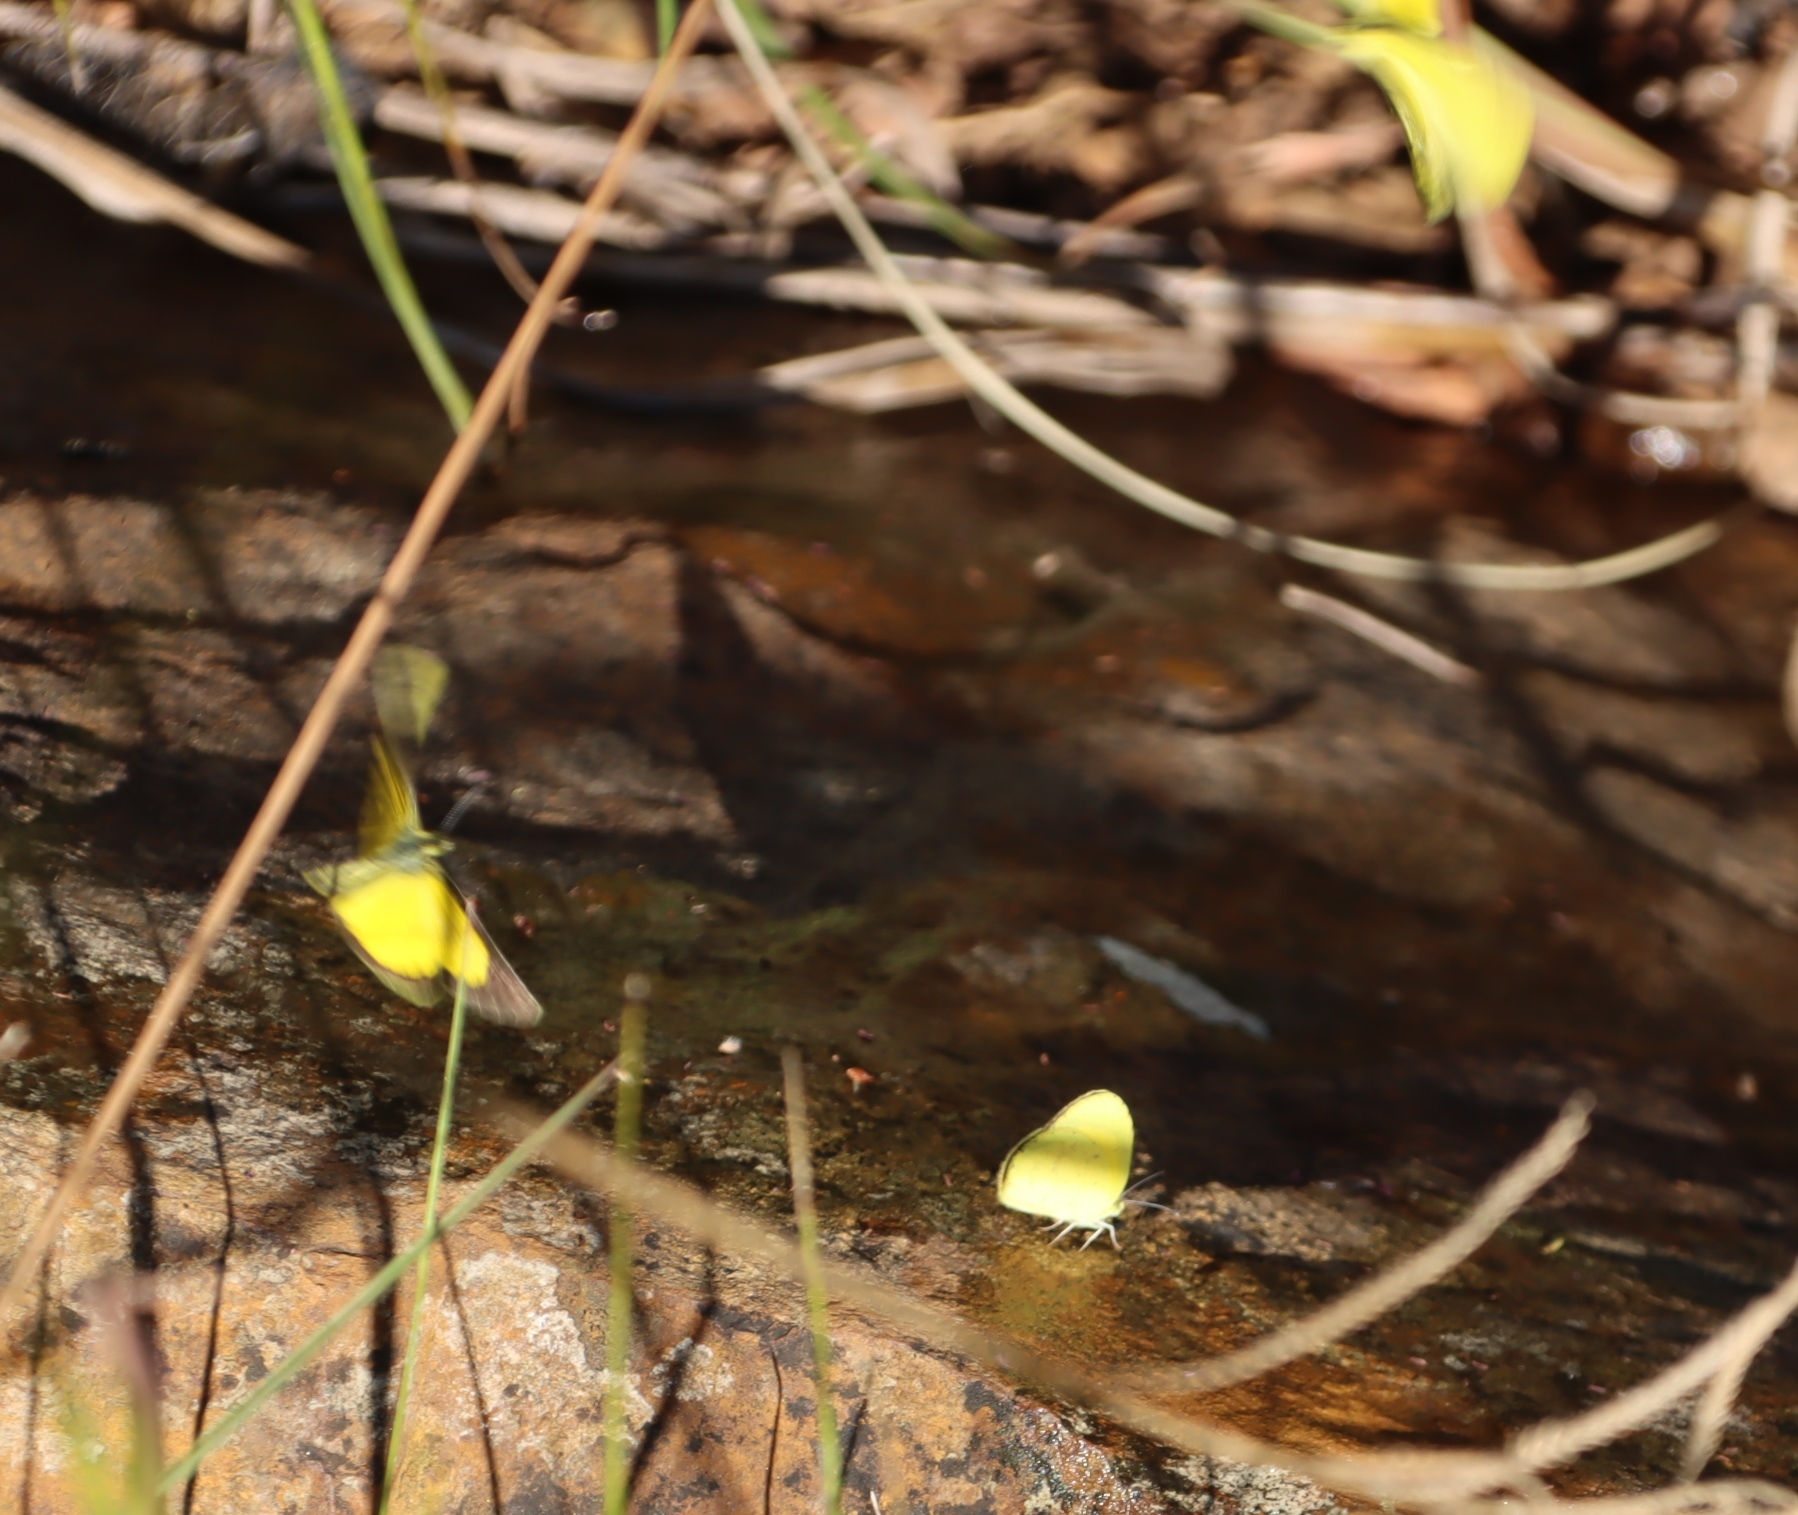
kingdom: Animalia
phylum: Arthropoda
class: Insecta
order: Lepidoptera
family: Pieridae
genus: Eurema
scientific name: Eurema brigitta
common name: Small grass yellow
